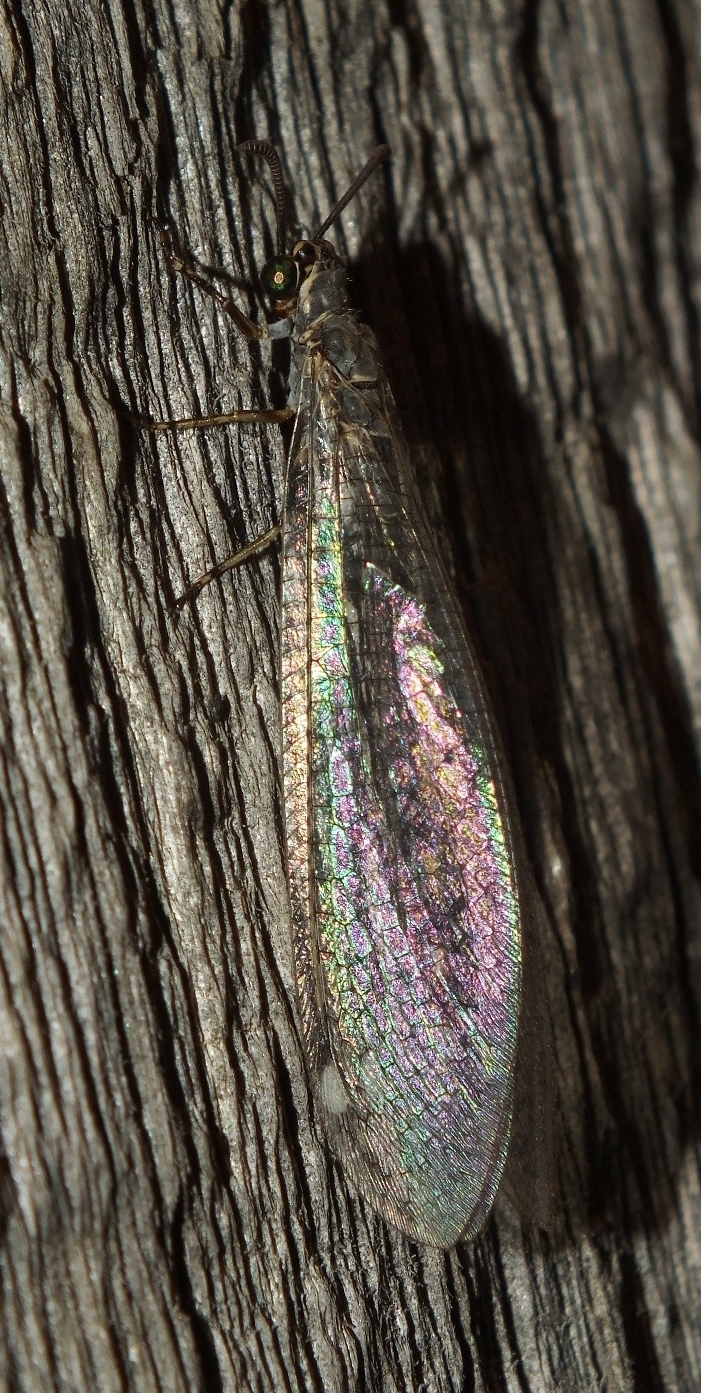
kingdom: Animalia
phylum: Arthropoda
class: Insecta
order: Neuroptera
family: Myrmeleontidae
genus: Myrmeleon
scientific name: Myrmeleon inconspicuus
